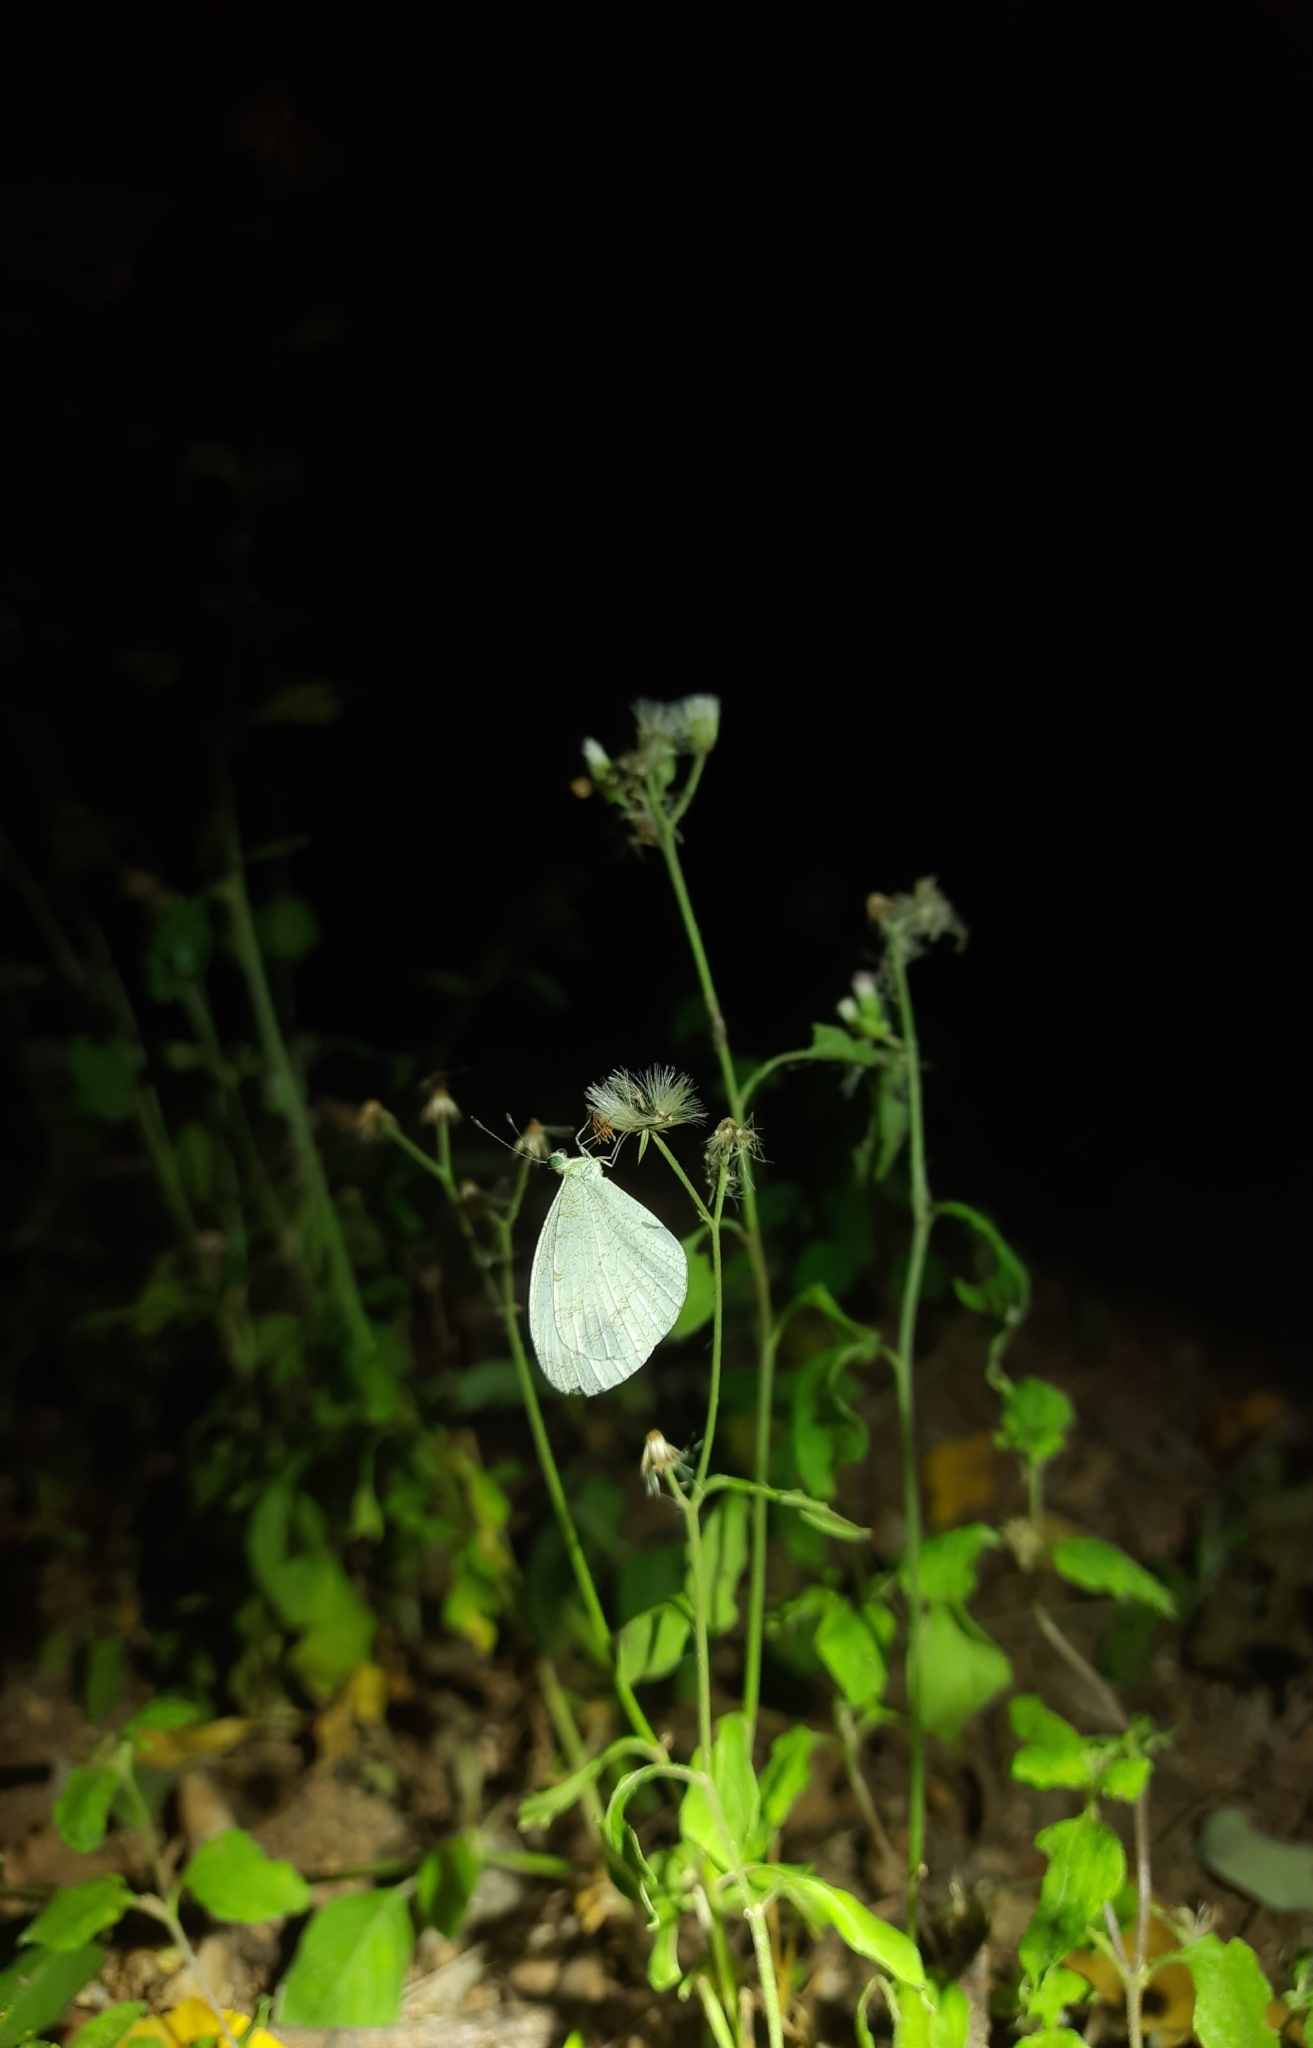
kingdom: Animalia
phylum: Arthropoda
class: Insecta
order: Lepidoptera
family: Pieridae
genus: Leptosia
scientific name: Leptosia nina
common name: Psyche
